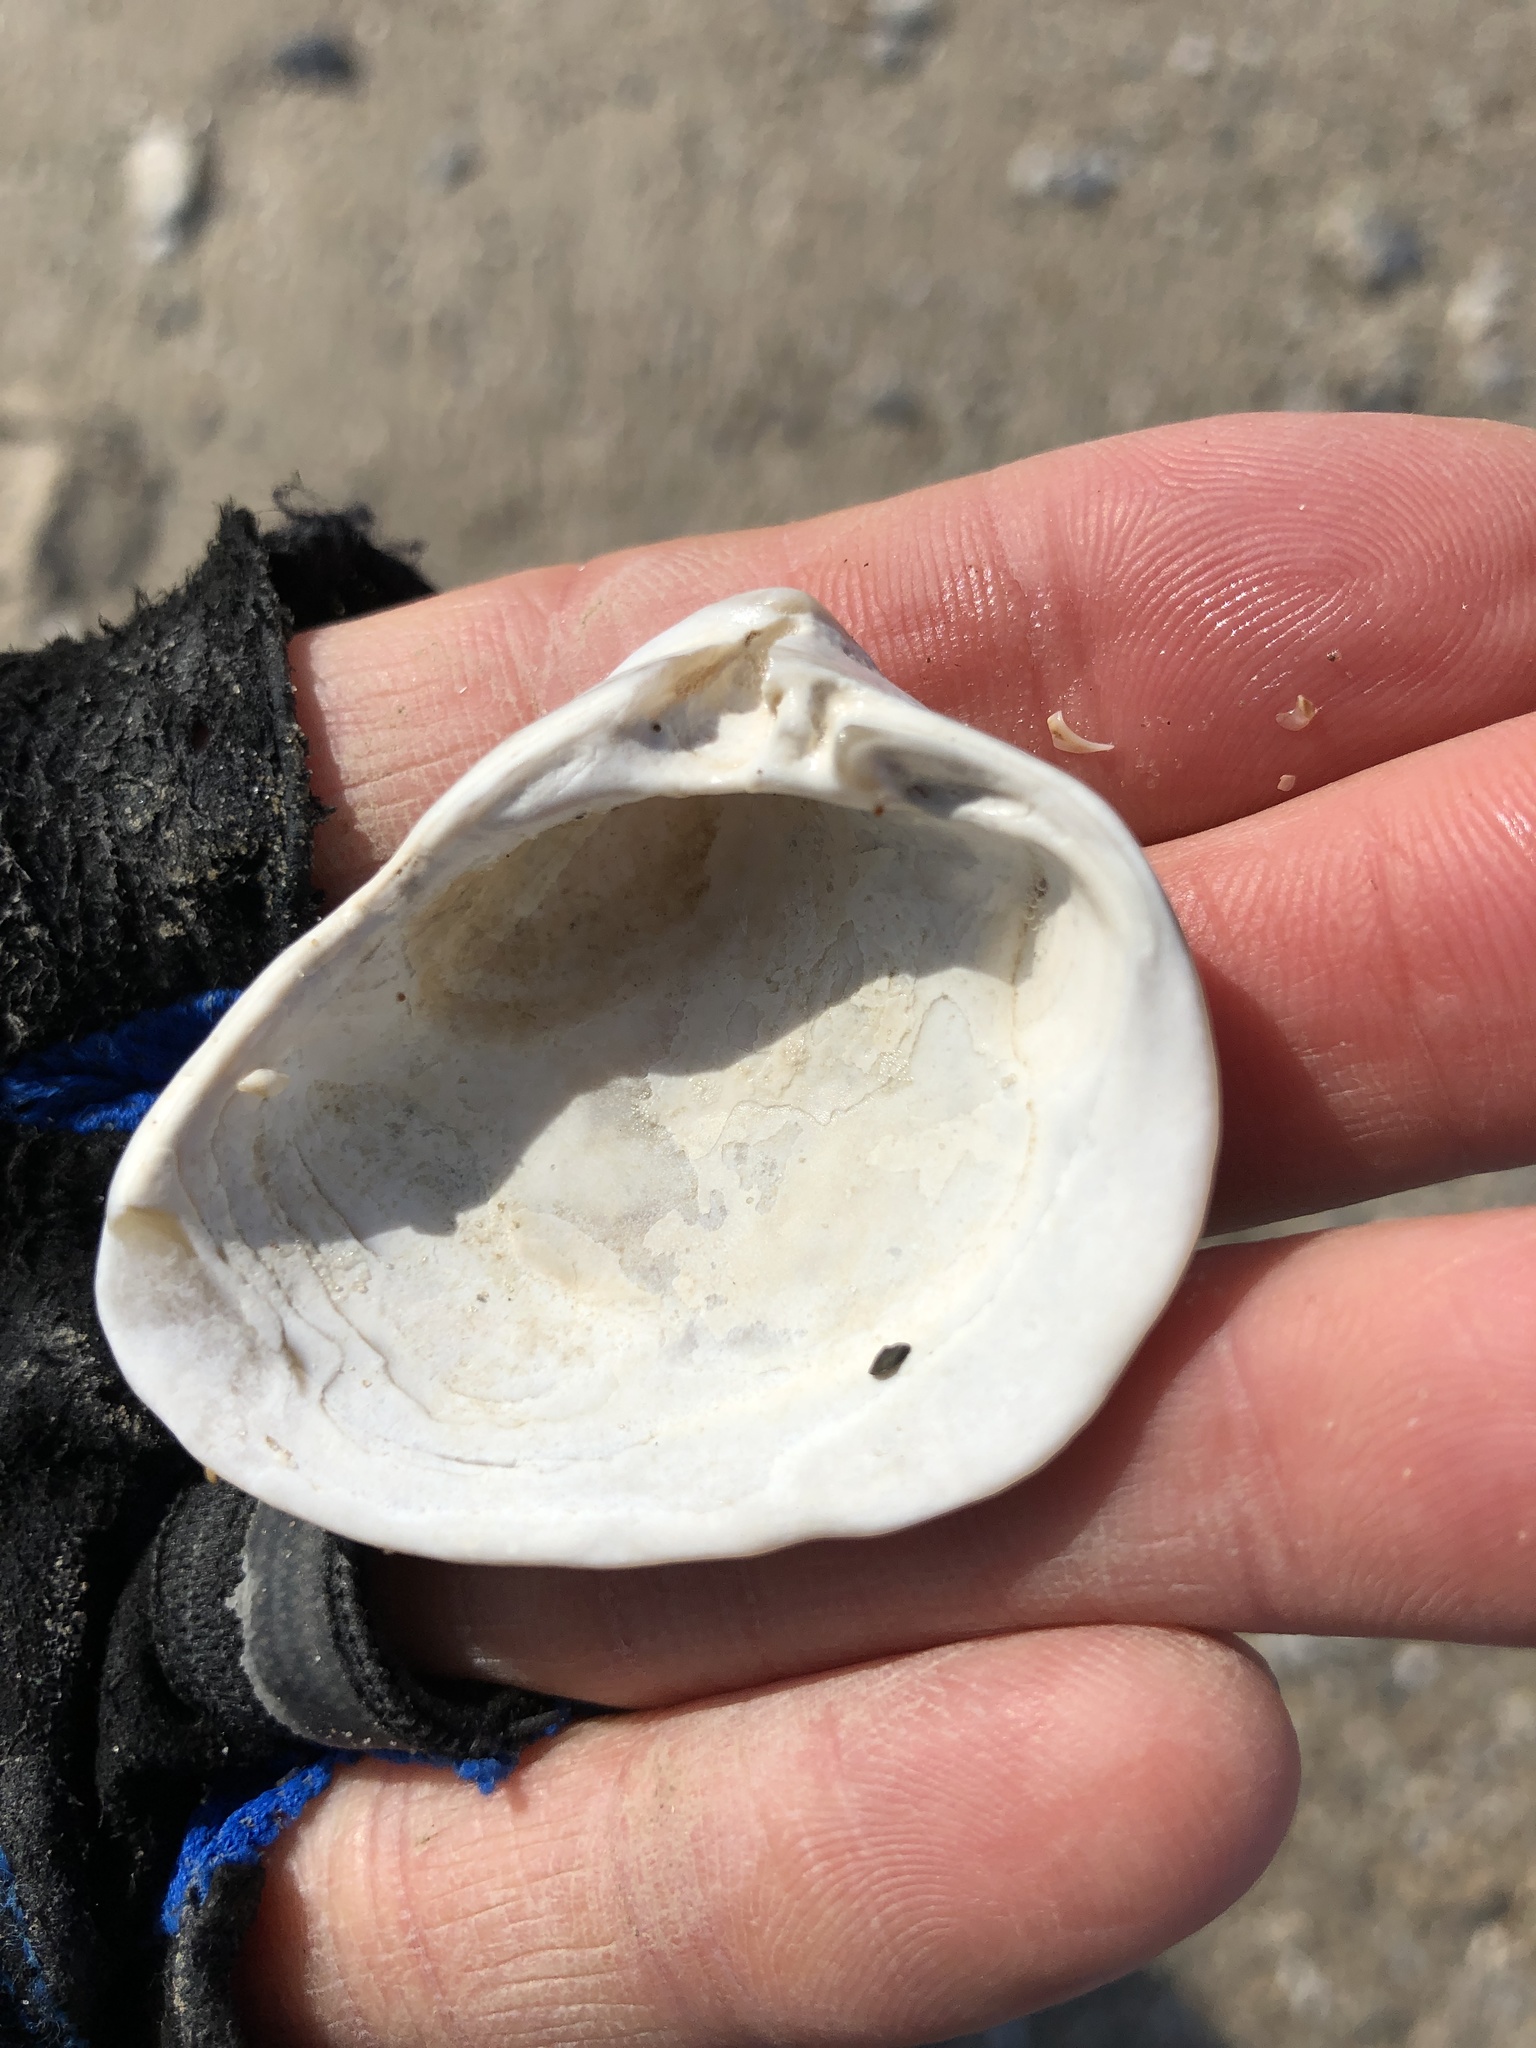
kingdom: Animalia
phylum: Mollusca
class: Bivalvia
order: Venerida
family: Mactridae
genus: Rangia
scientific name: Rangia cuneata
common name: Atlantic rangia
